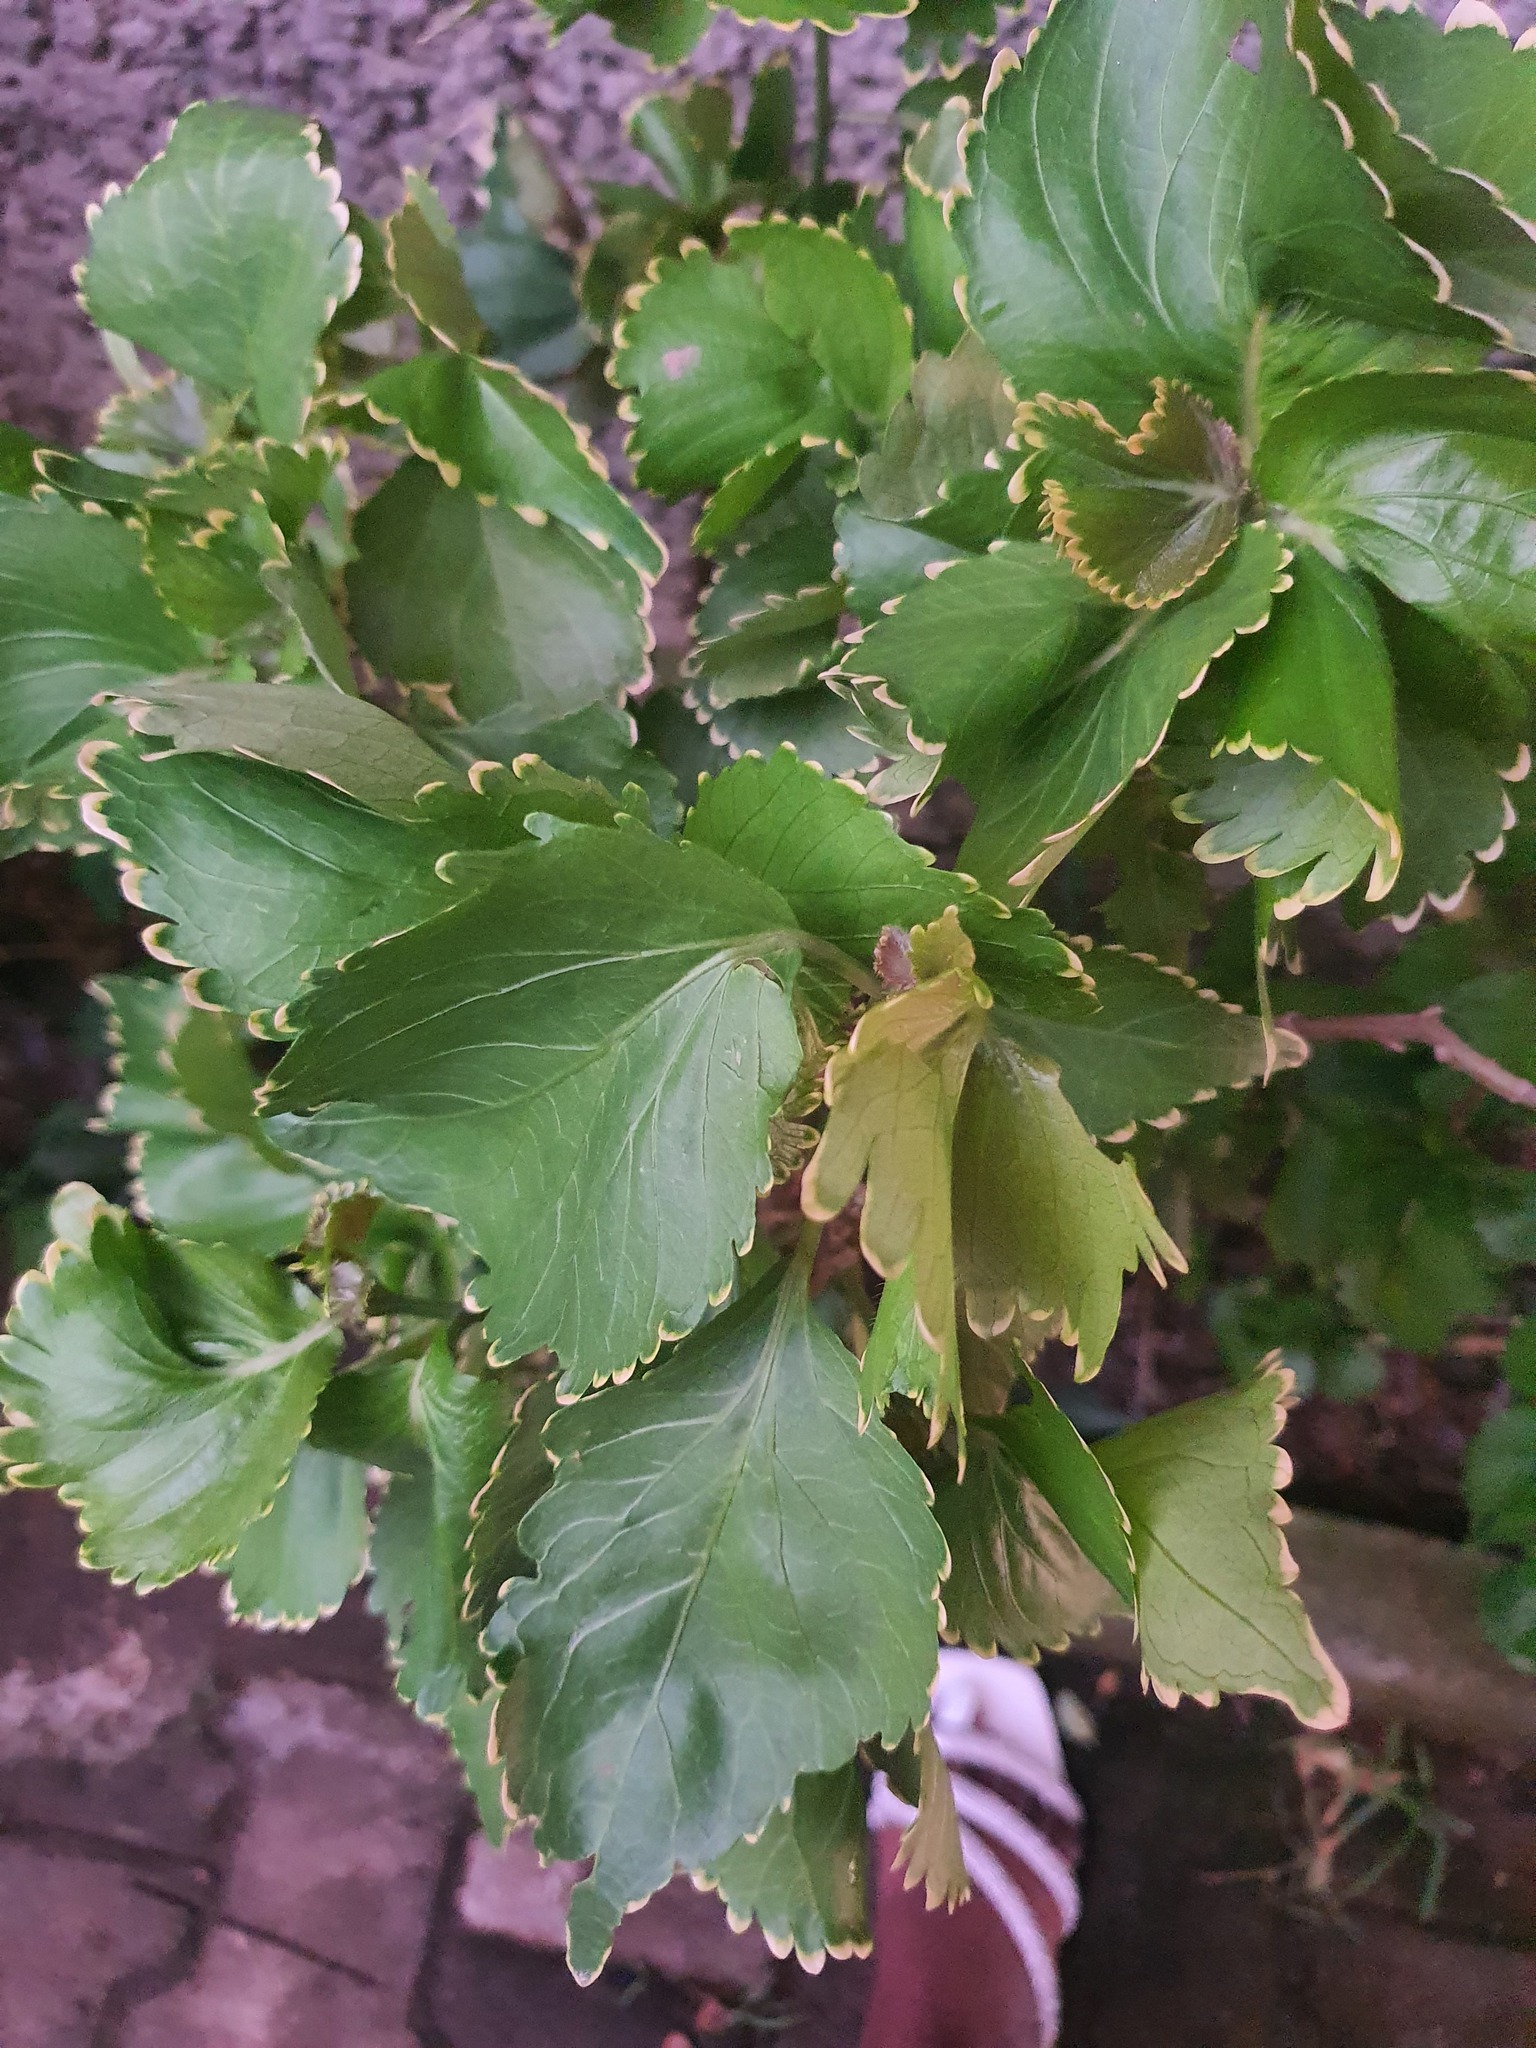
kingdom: Plantae
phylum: Tracheophyta
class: Magnoliopsida
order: Malpighiales
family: Euphorbiaceae
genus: Acalypha
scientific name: Acalypha wilkesiana
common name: Jacob's coat
